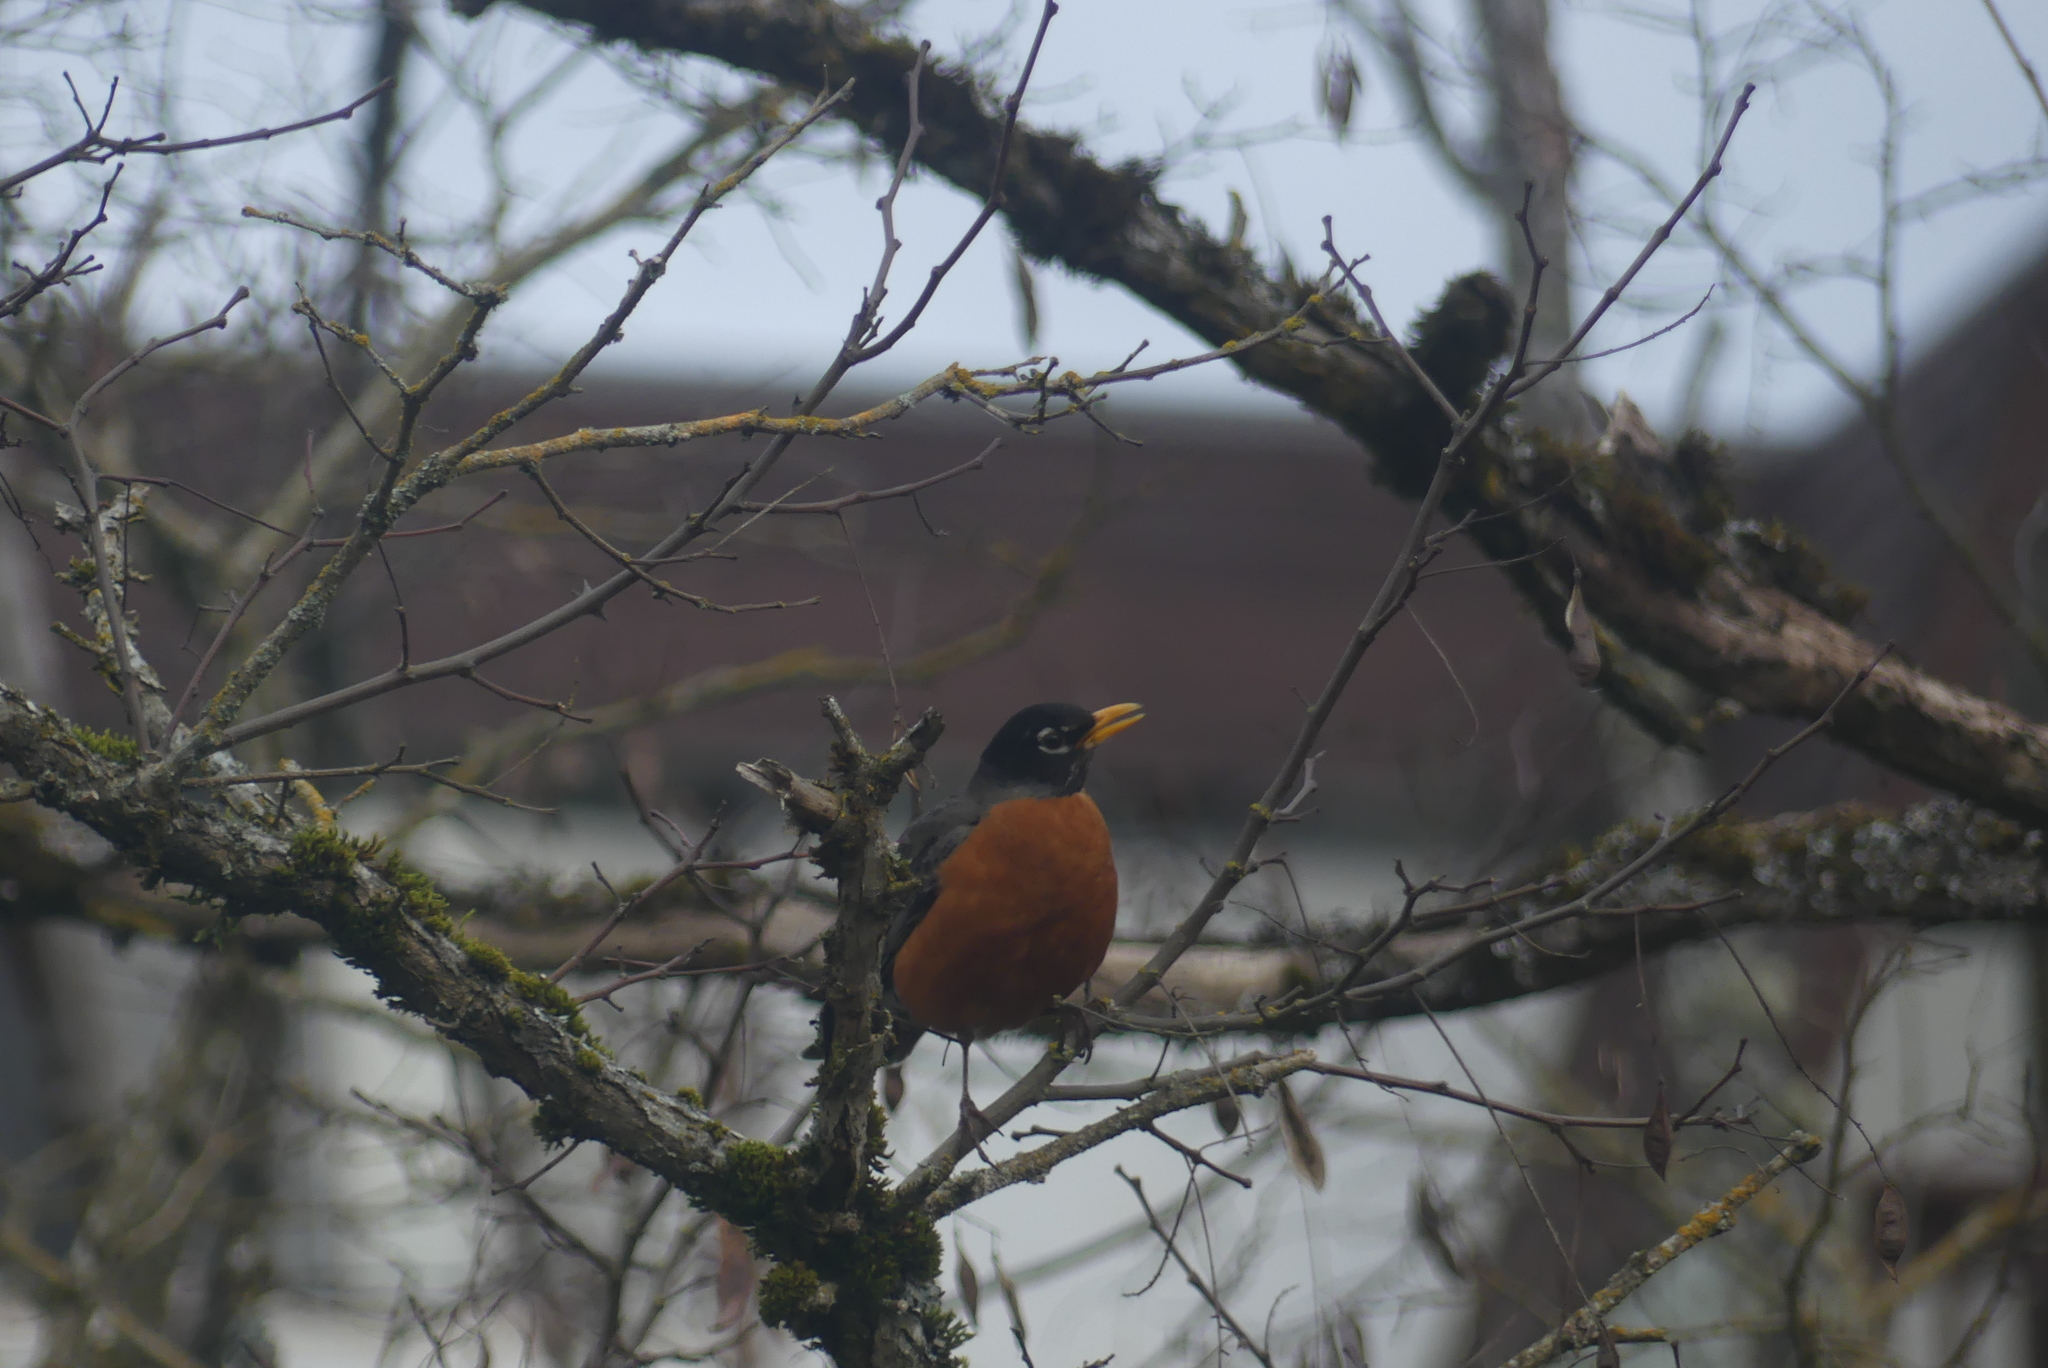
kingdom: Animalia
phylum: Chordata
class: Aves
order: Passeriformes
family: Turdidae
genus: Turdus
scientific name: Turdus migratorius
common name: American robin
